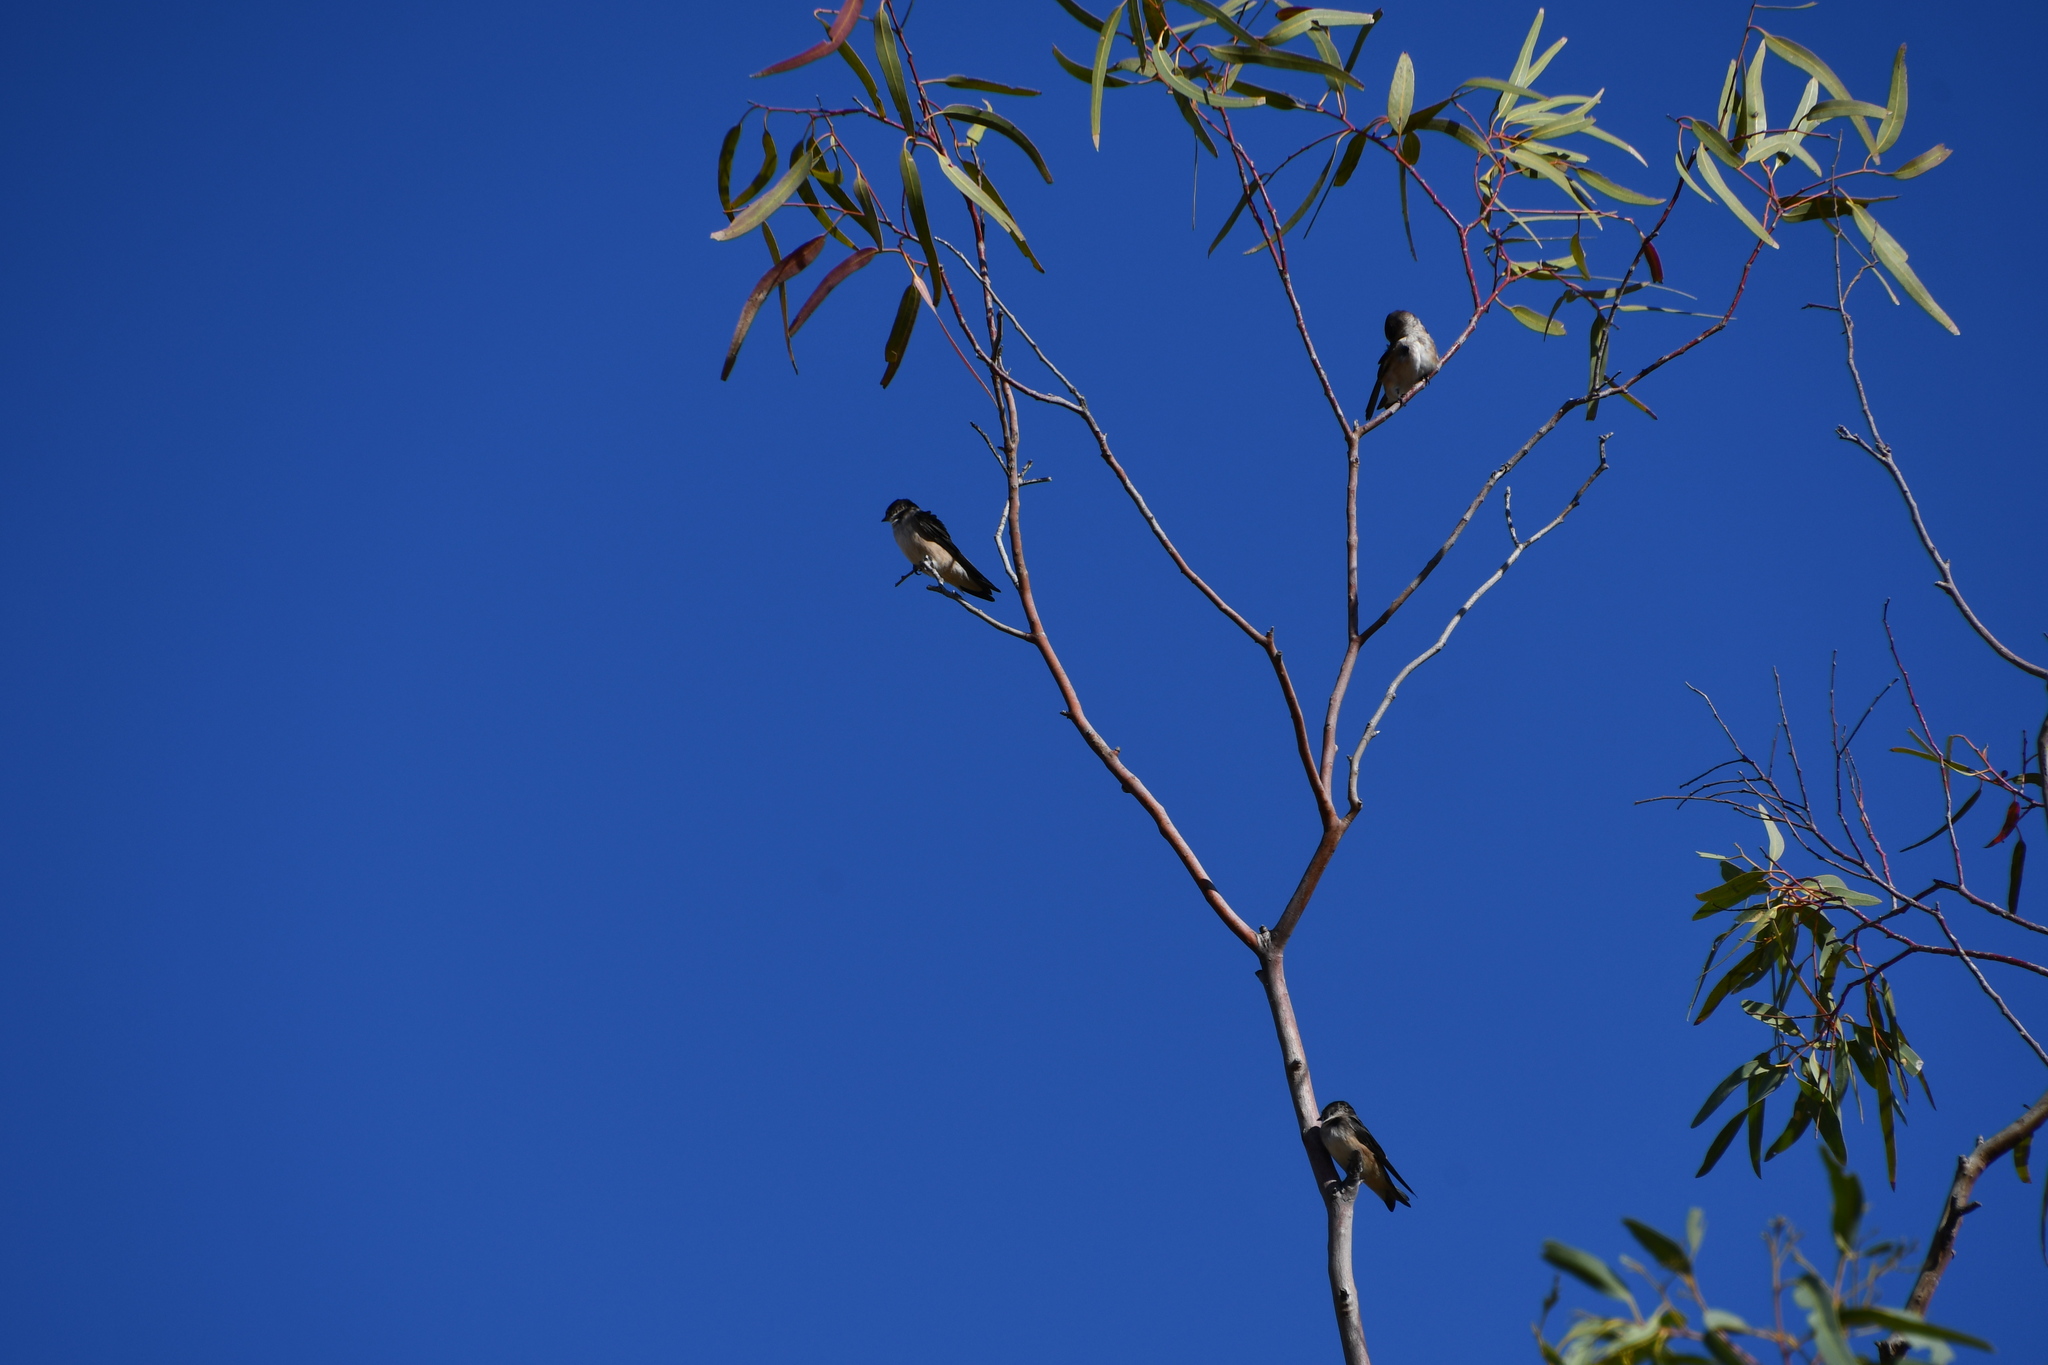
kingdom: Animalia
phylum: Chordata
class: Aves
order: Passeriformes
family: Hirundinidae
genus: Petrochelidon
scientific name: Petrochelidon nigricans
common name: Tree martin
